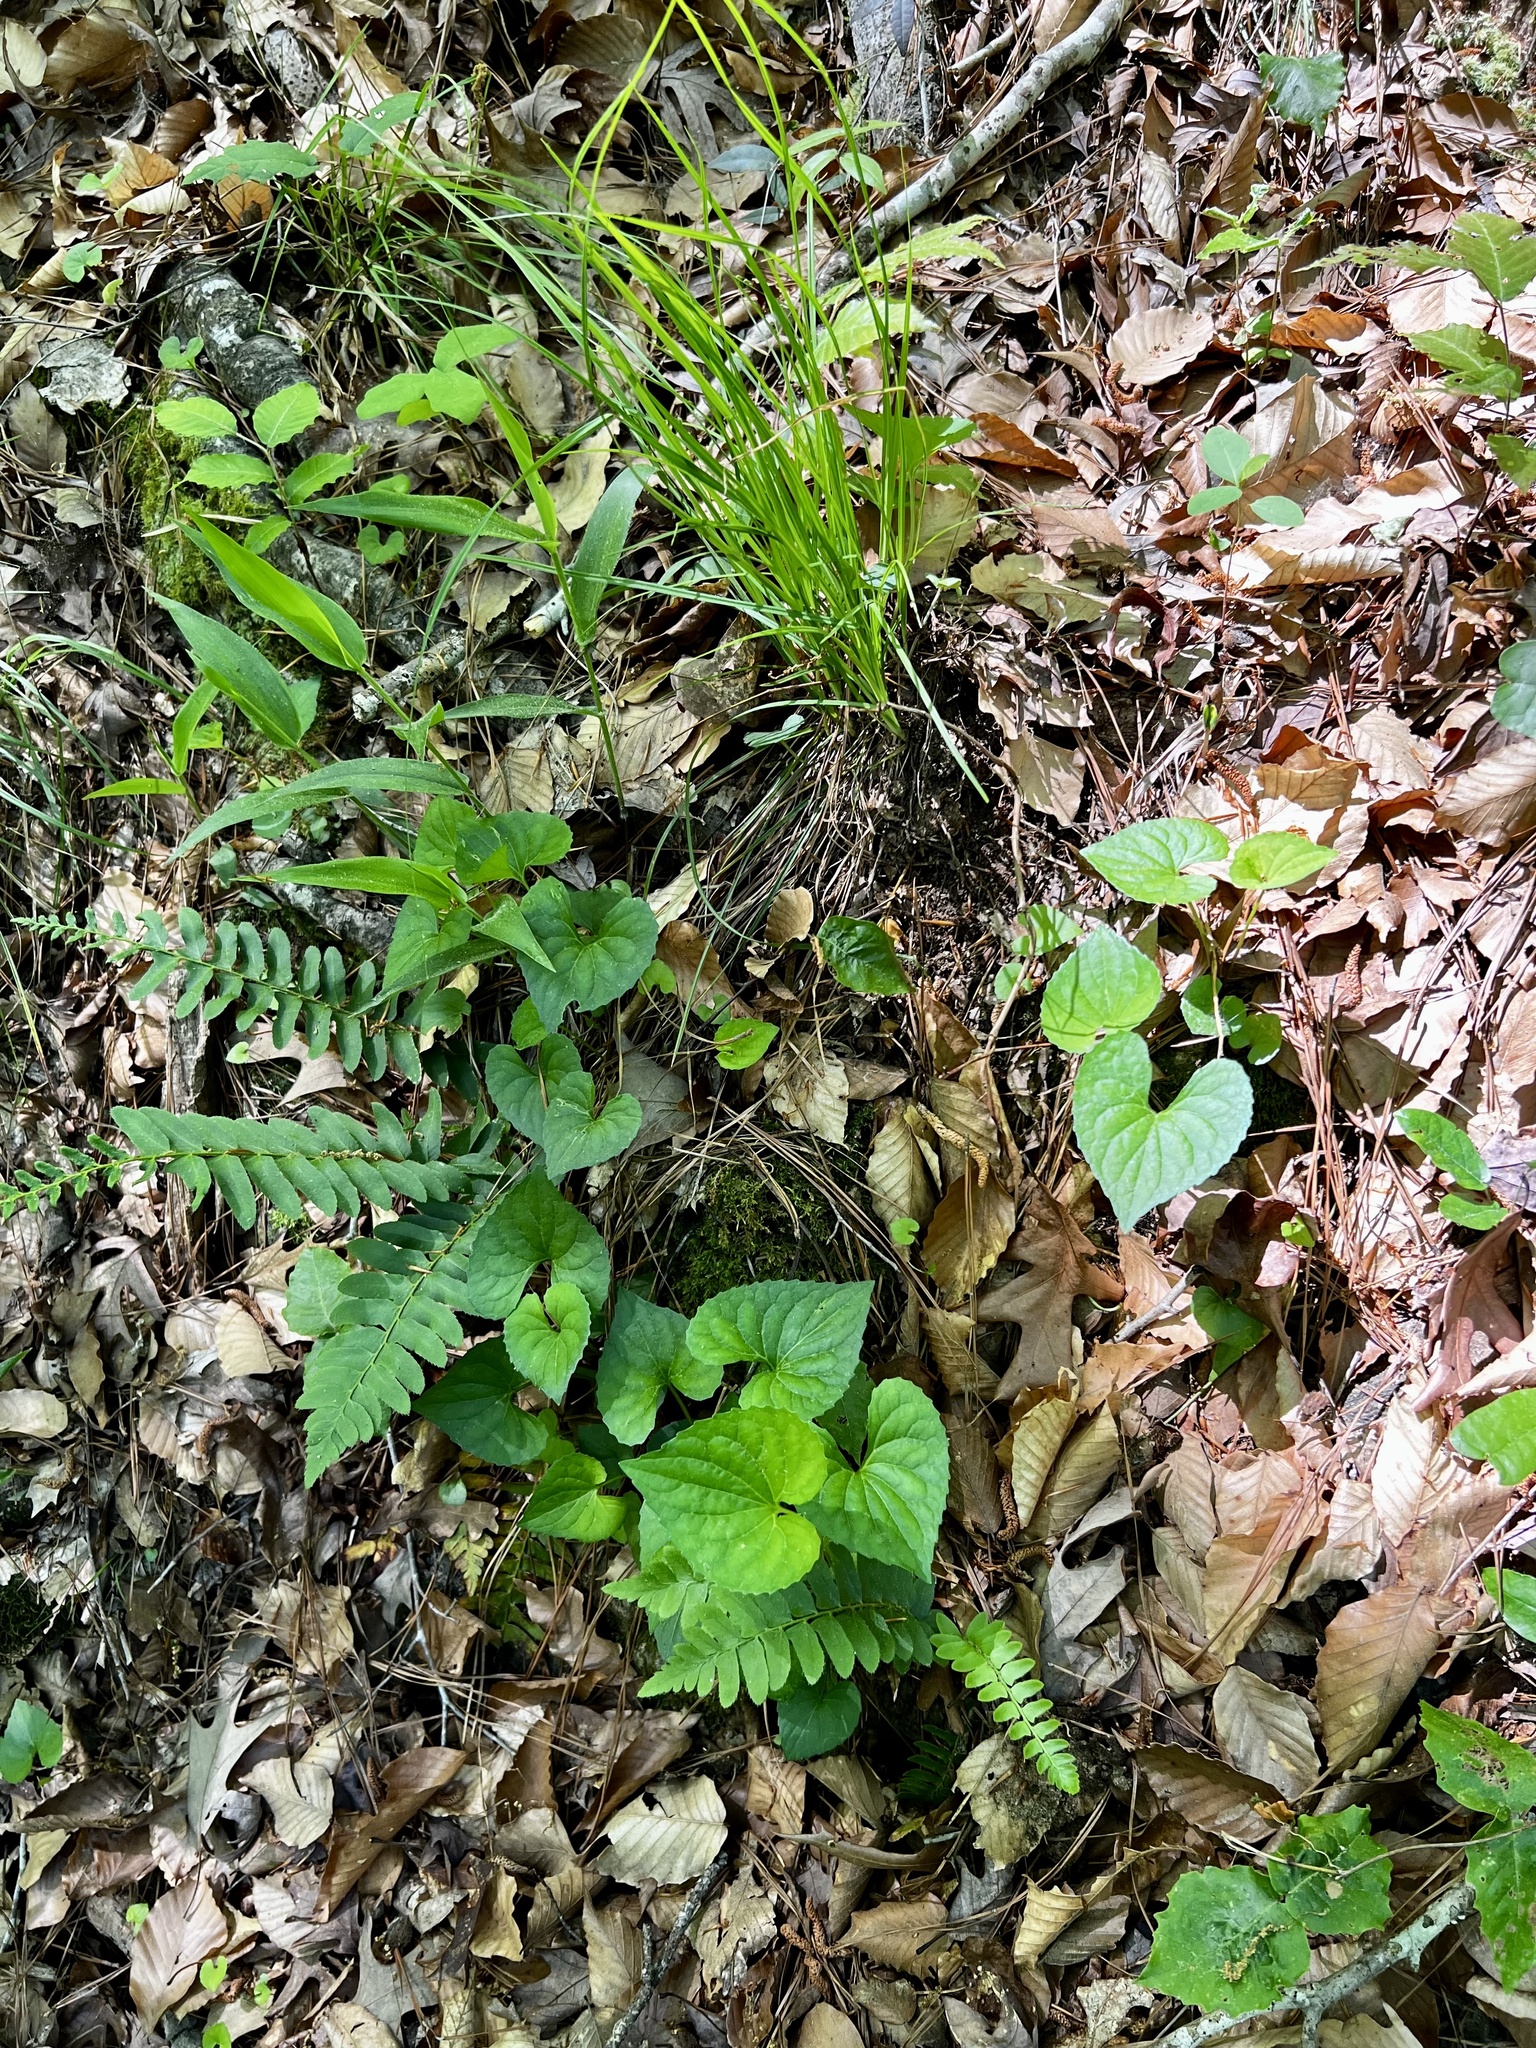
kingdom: Plantae
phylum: Tracheophyta
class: Magnoliopsida
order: Malpighiales
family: Violaceae
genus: Viola
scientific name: Viola sororia
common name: Dooryard violet
